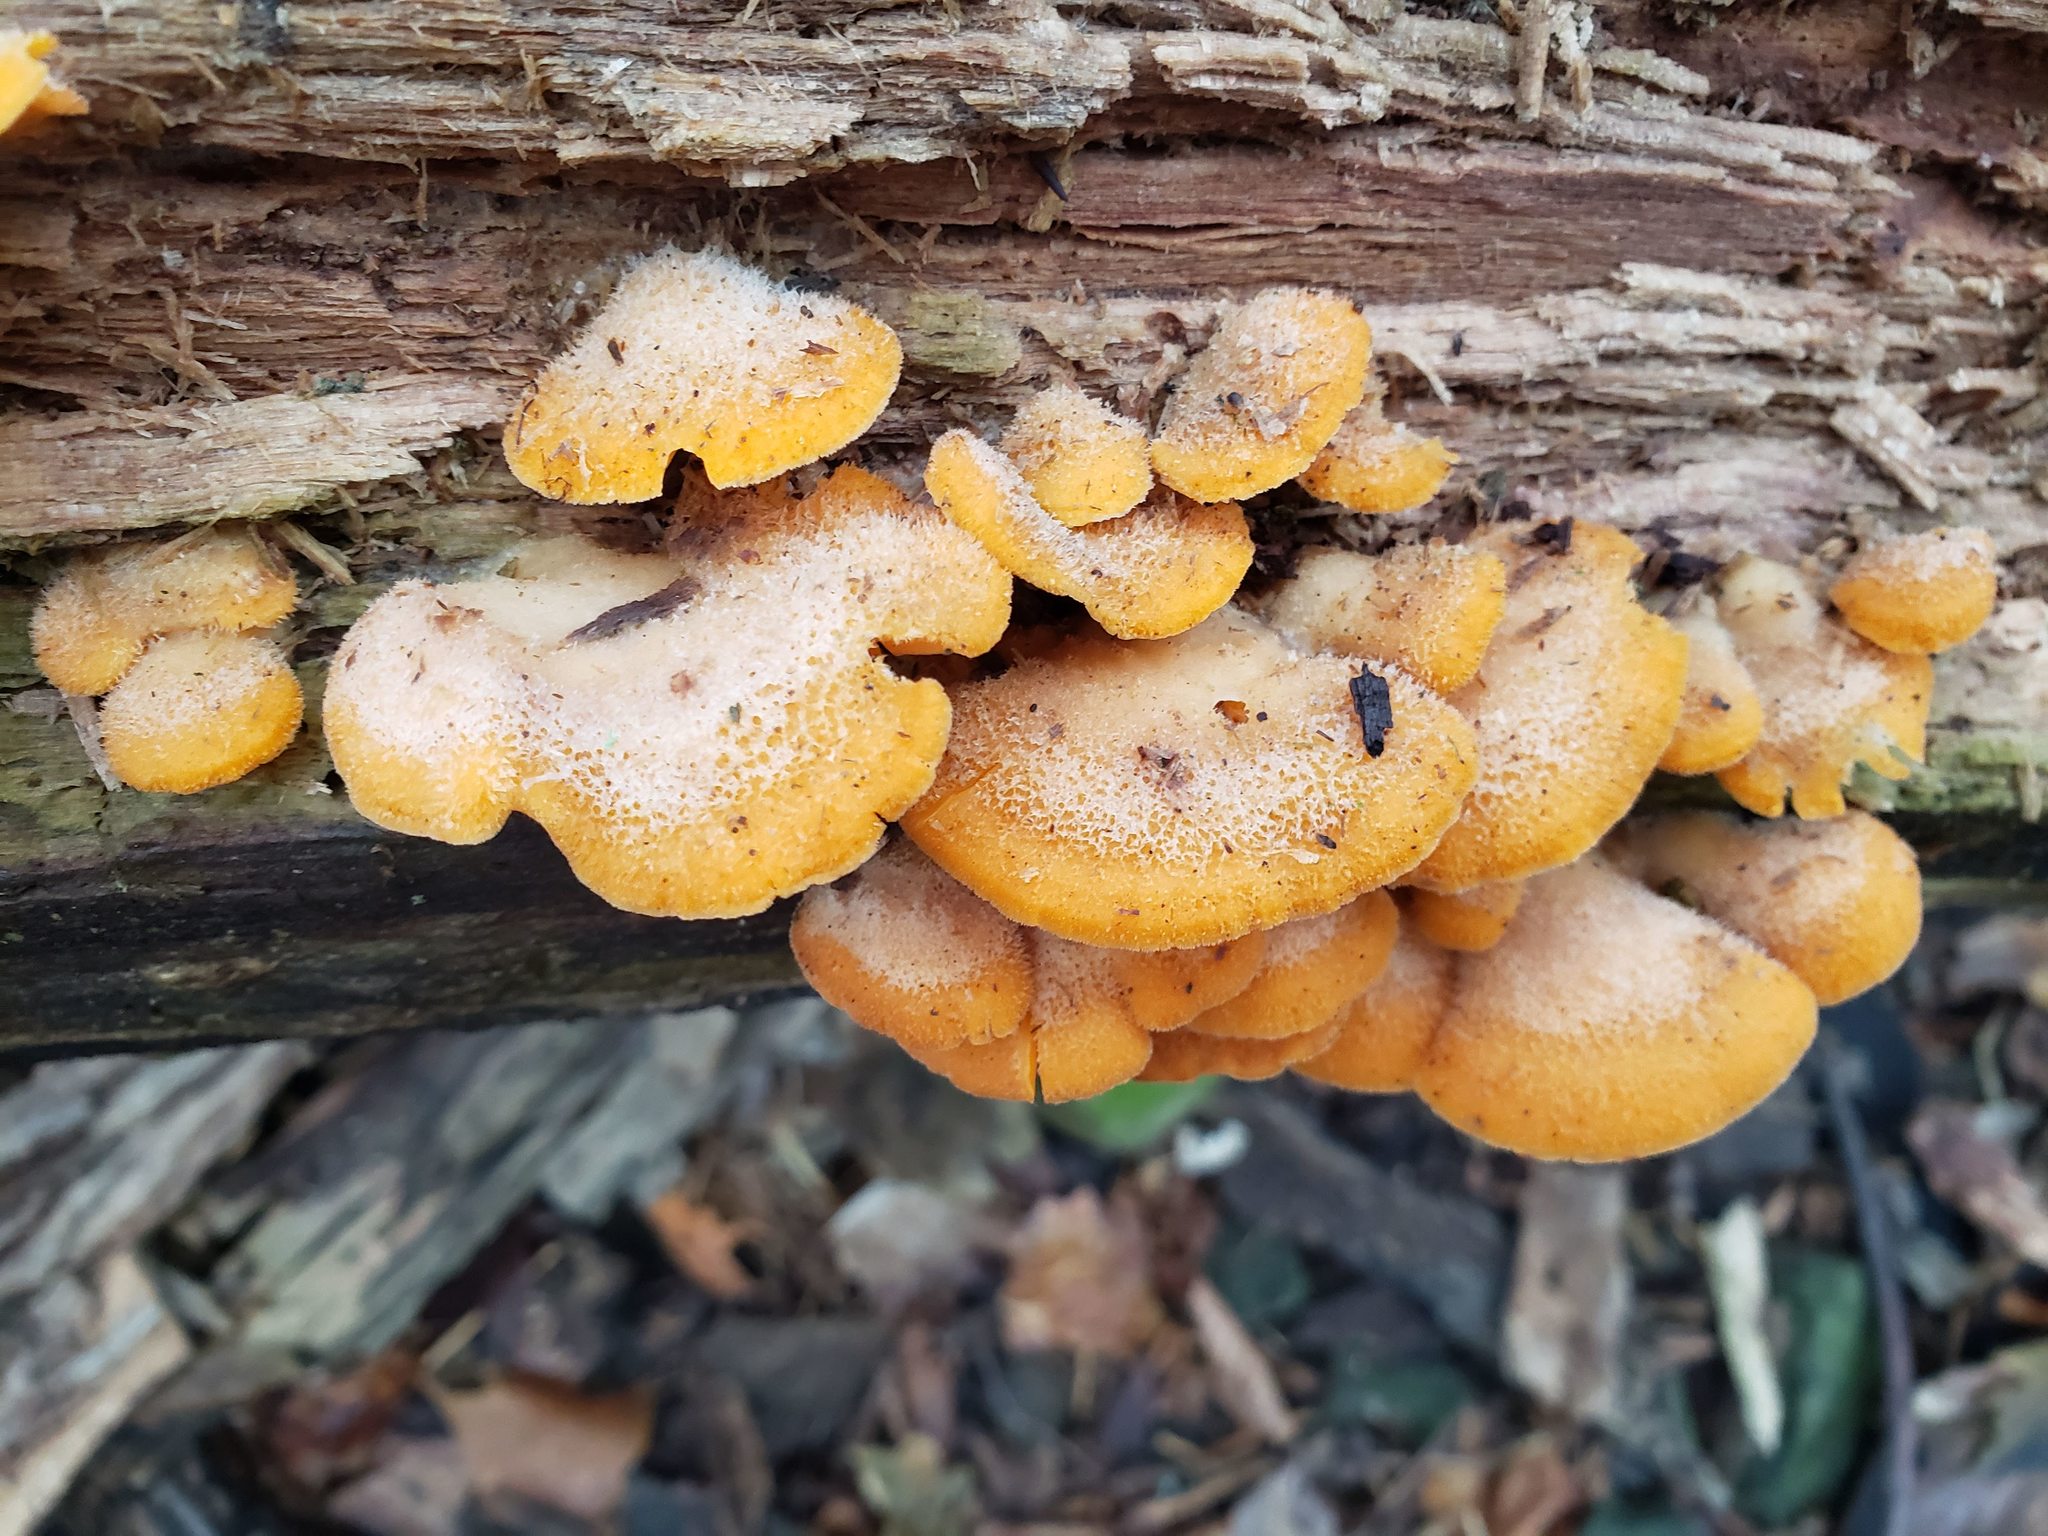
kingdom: Fungi
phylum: Basidiomycota
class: Agaricomycetes
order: Agaricales
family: Phyllotopsidaceae
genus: Phyllotopsis
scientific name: Phyllotopsis nidulans
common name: Orange mock oyster
